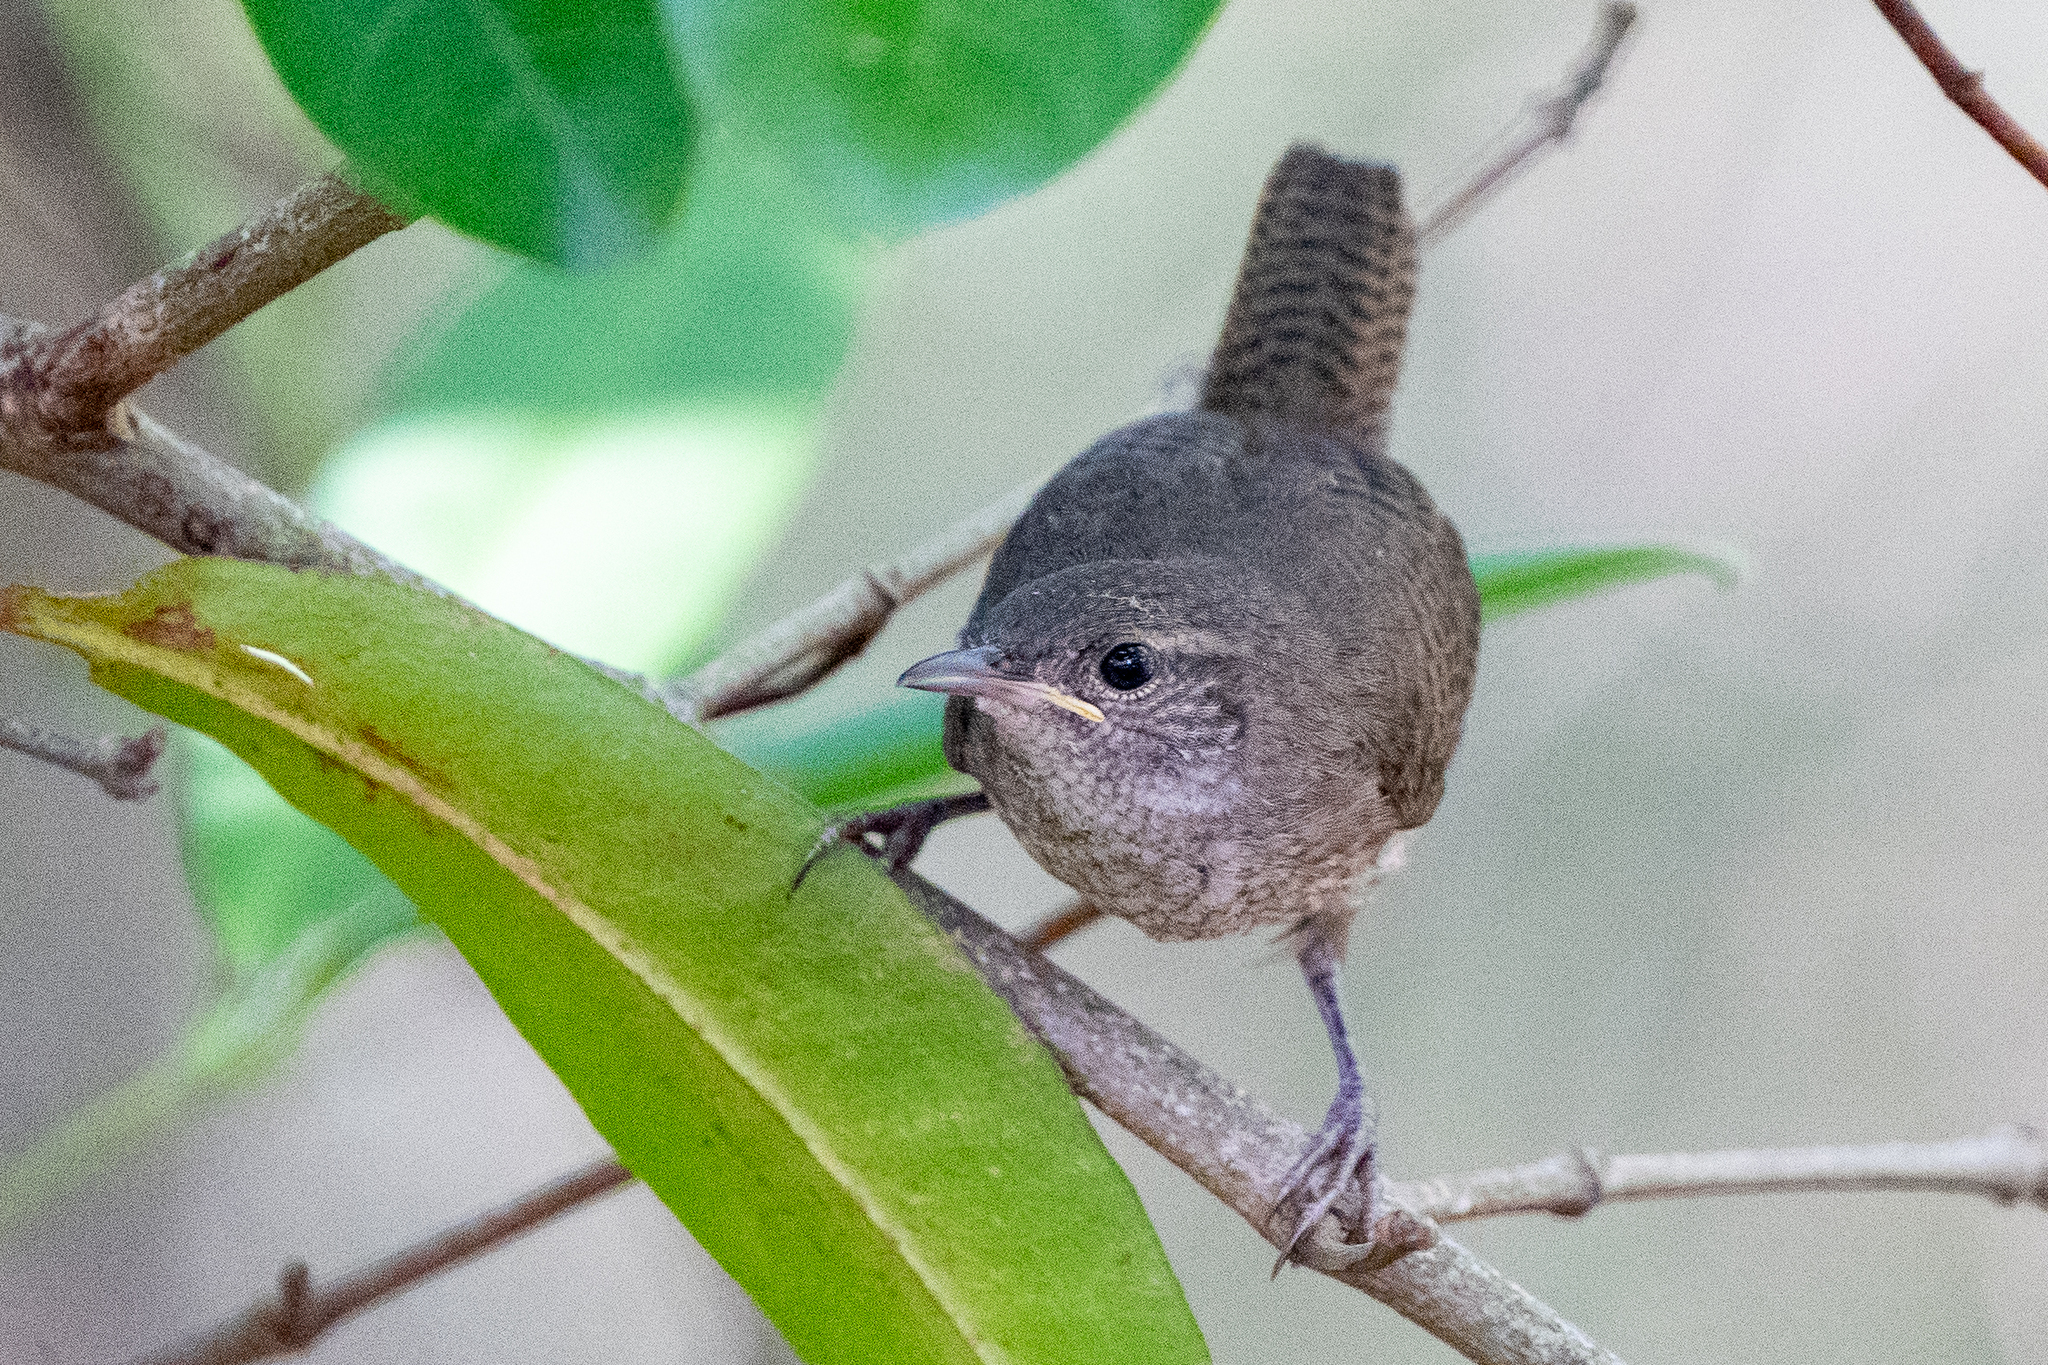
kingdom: Animalia
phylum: Chordata
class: Aves
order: Passeriformes
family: Troglodytidae
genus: Troglodytes
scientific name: Troglodytes aedon
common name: House wren
